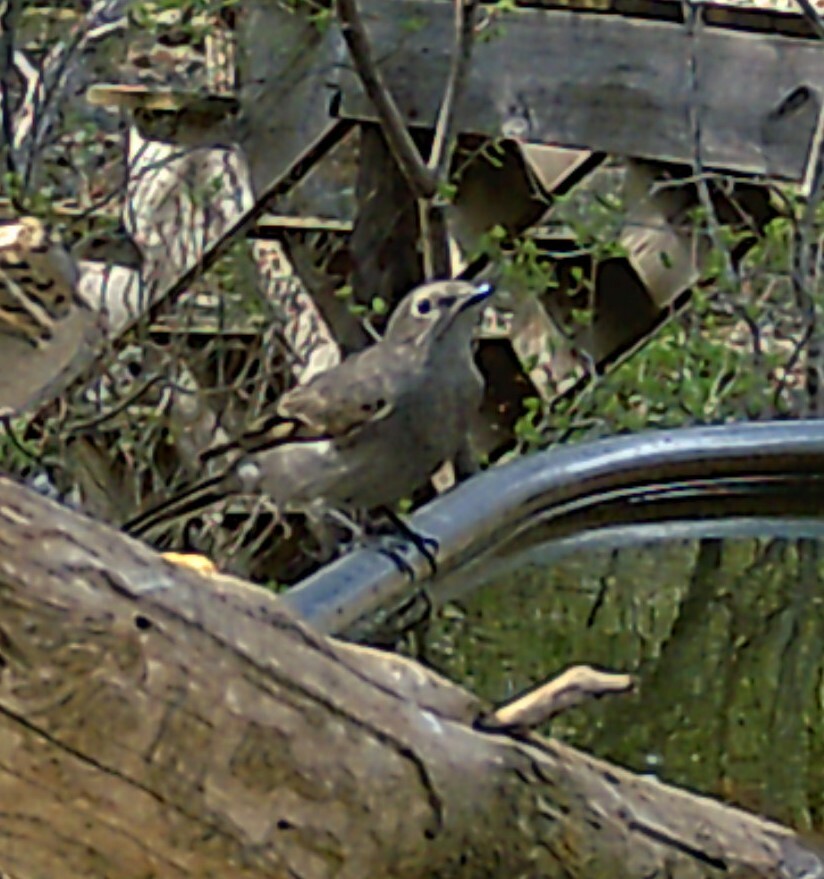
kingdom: Animalia
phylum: Chordata
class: Aves
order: Passeriformes
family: Turdidae
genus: Myadestes
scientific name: Myadestes townsendi
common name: Townsend's solitaire
